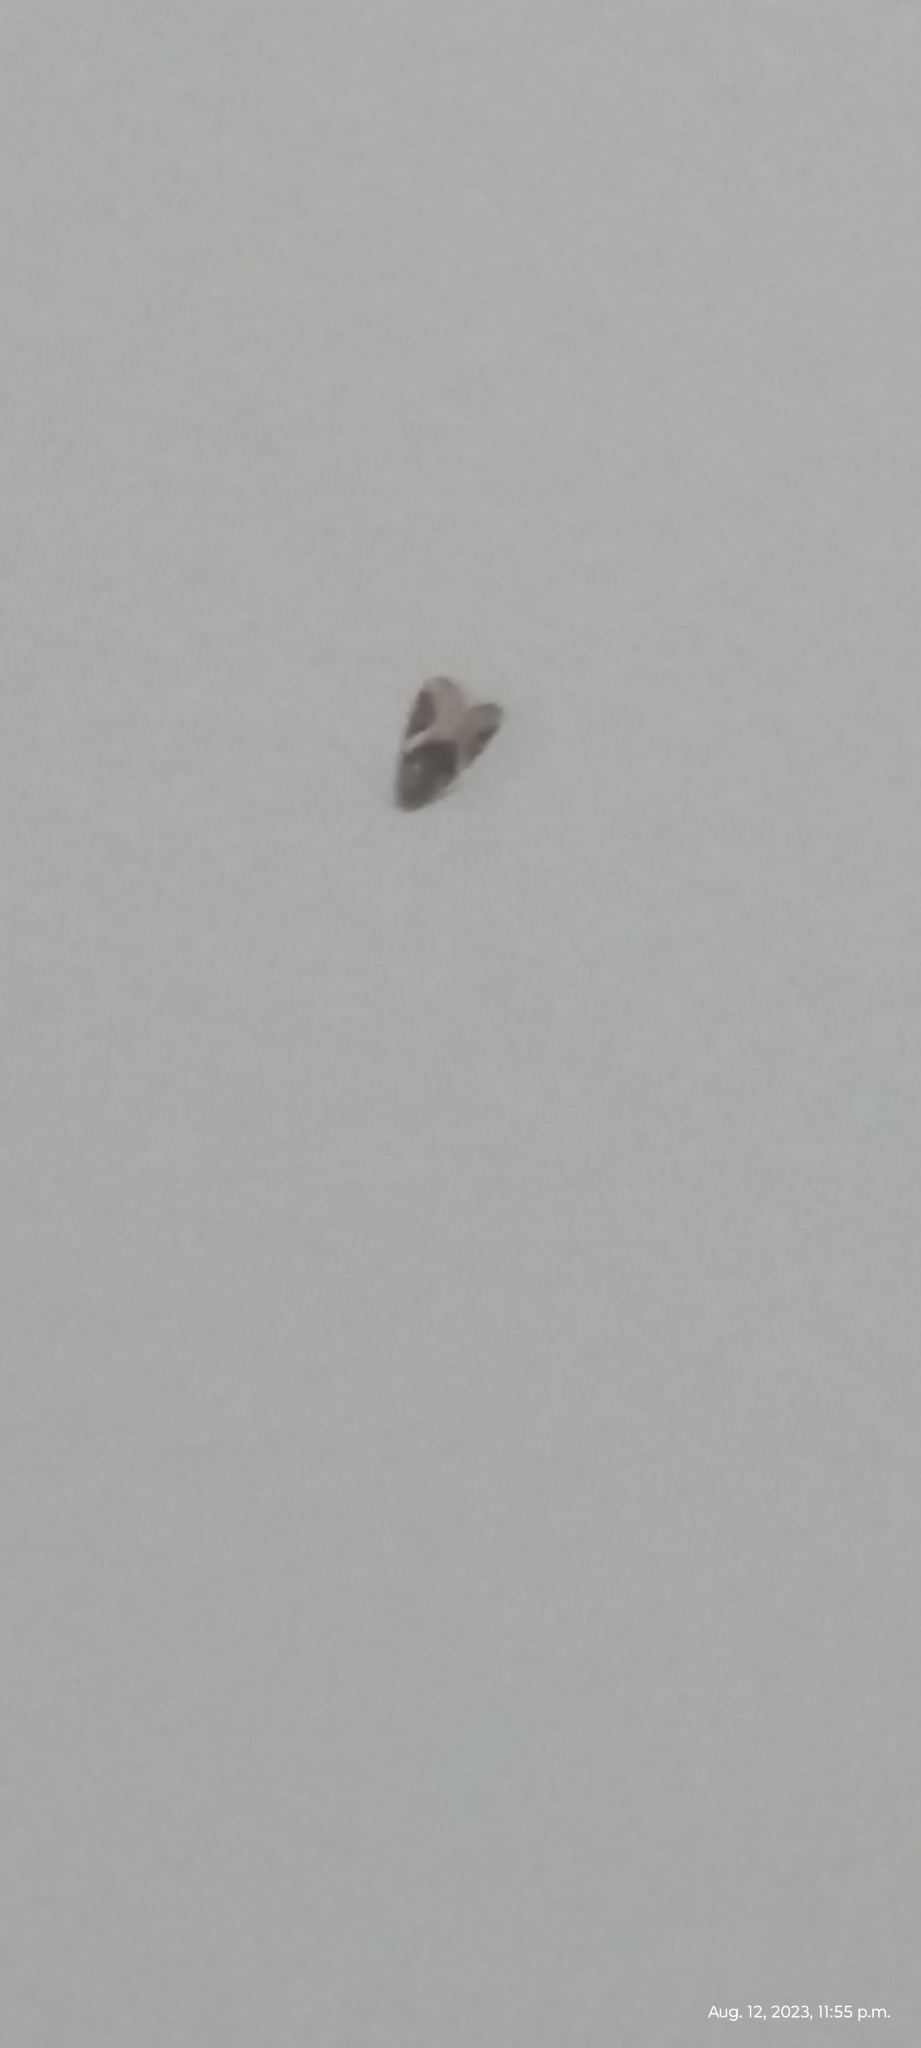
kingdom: Animalia
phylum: Arthropoda
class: Insecta
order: Lepidoptera
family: Noctuidae
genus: Pseudeustrotia
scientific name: Pseudeustrotia carneola
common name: Pink-barred lithacodia moth
